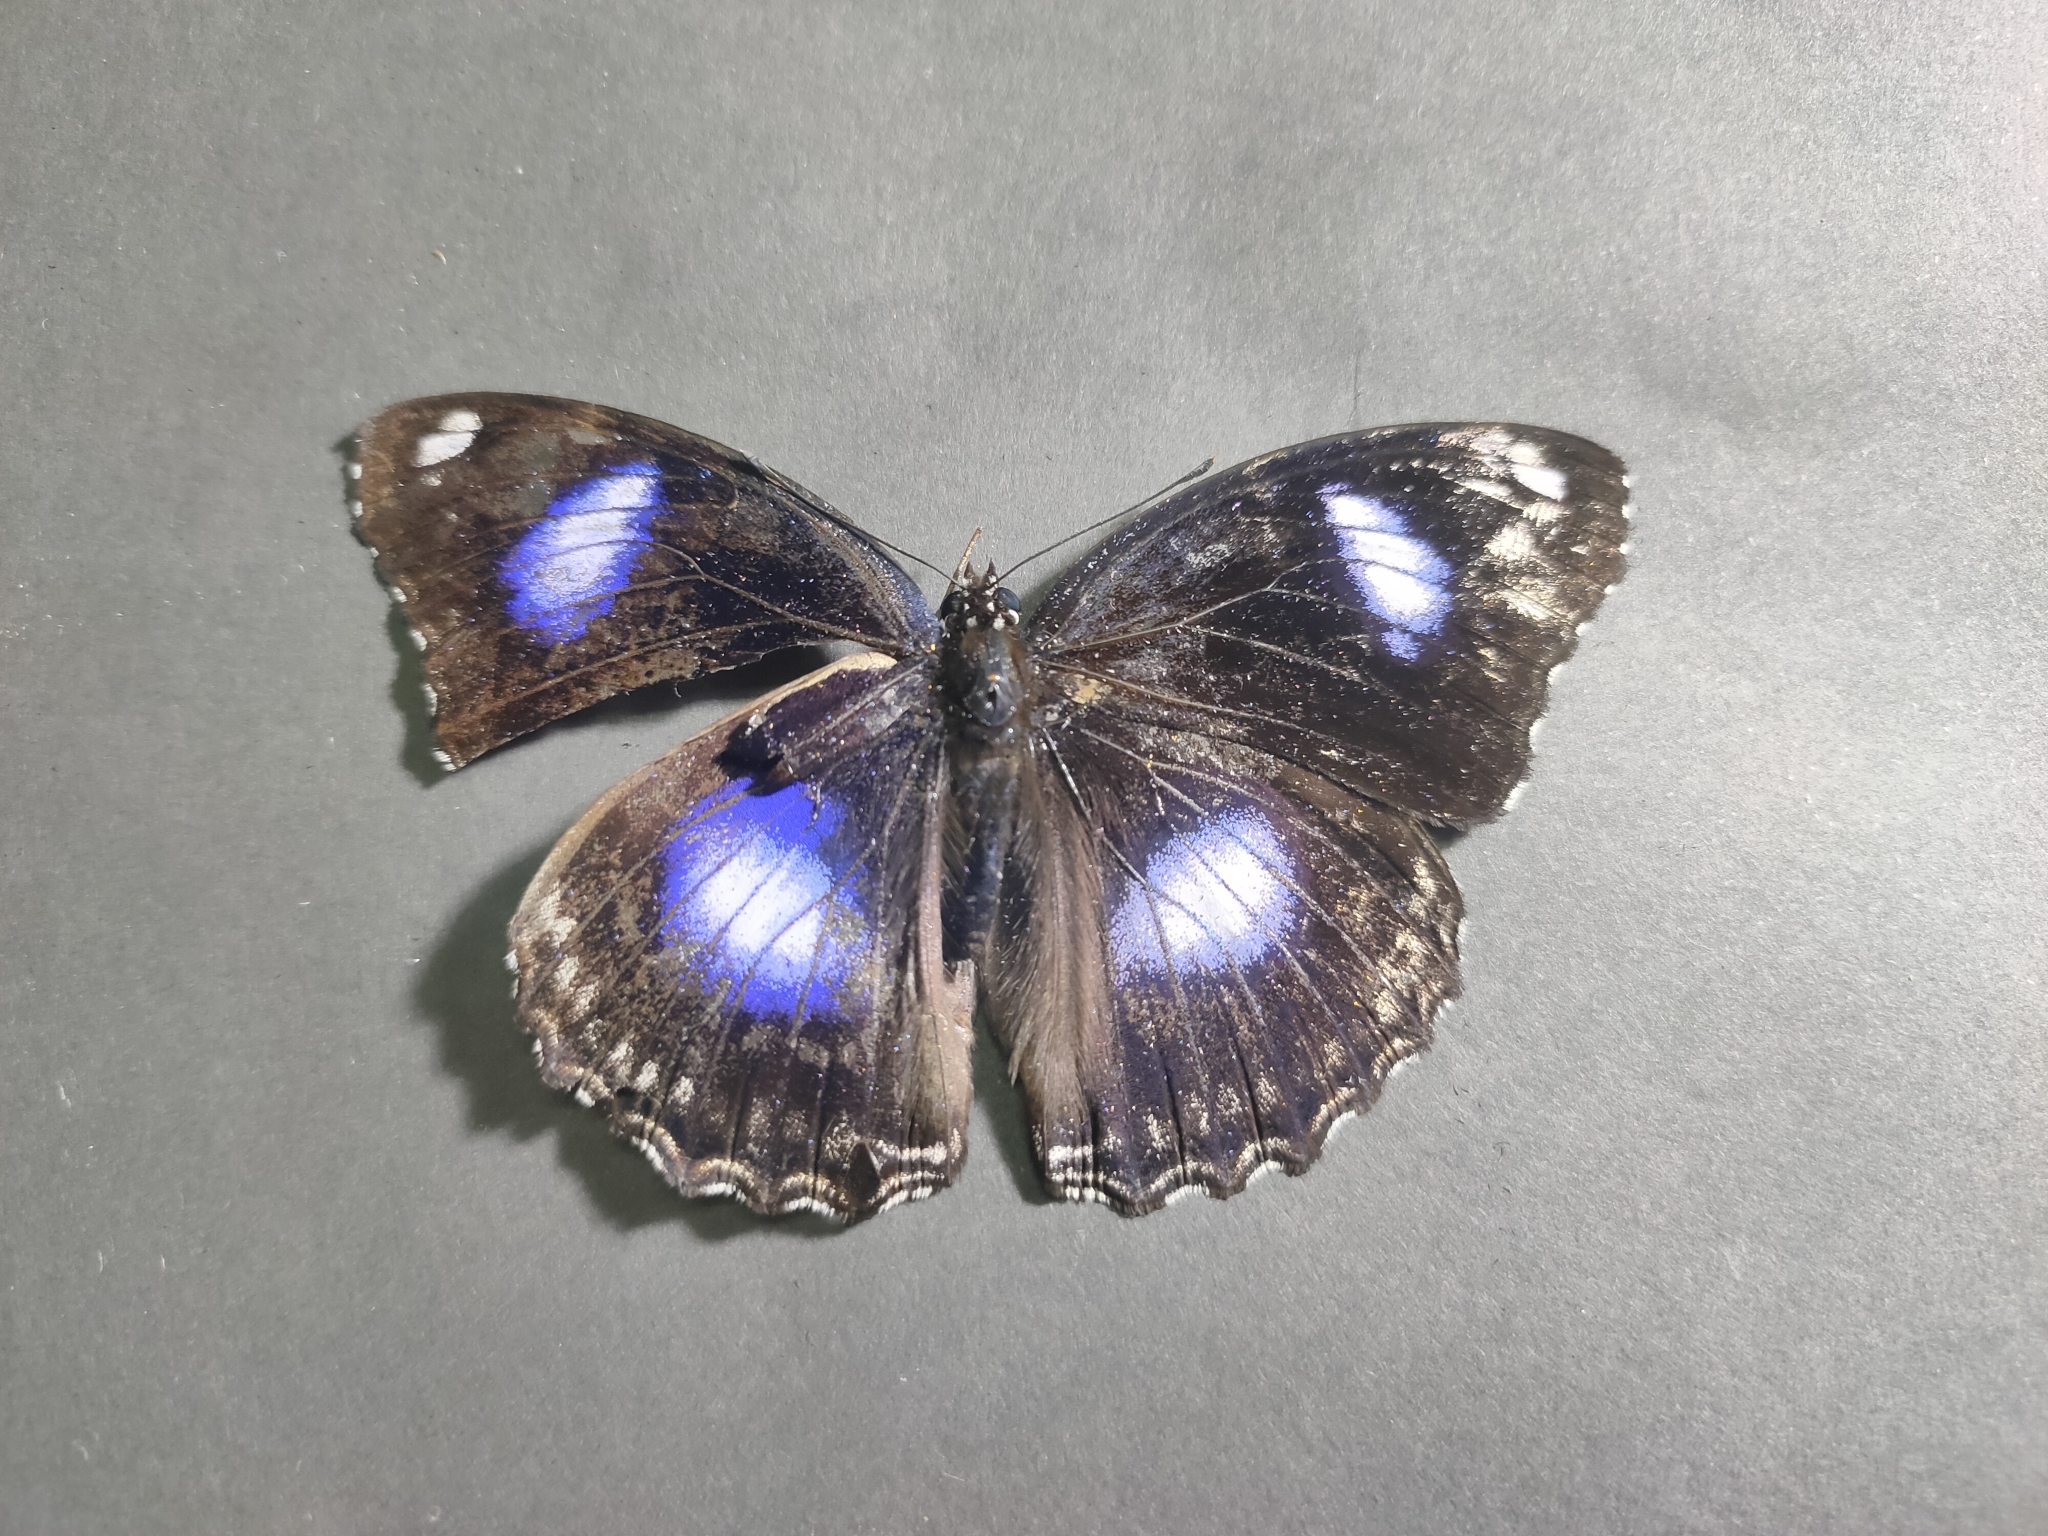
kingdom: Animalia
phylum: Arthropoda
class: Insecta
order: Lepidoptera
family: Nymphalidae
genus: Hypolimnas
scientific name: Hypolimnas bolina
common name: Great eggfly
